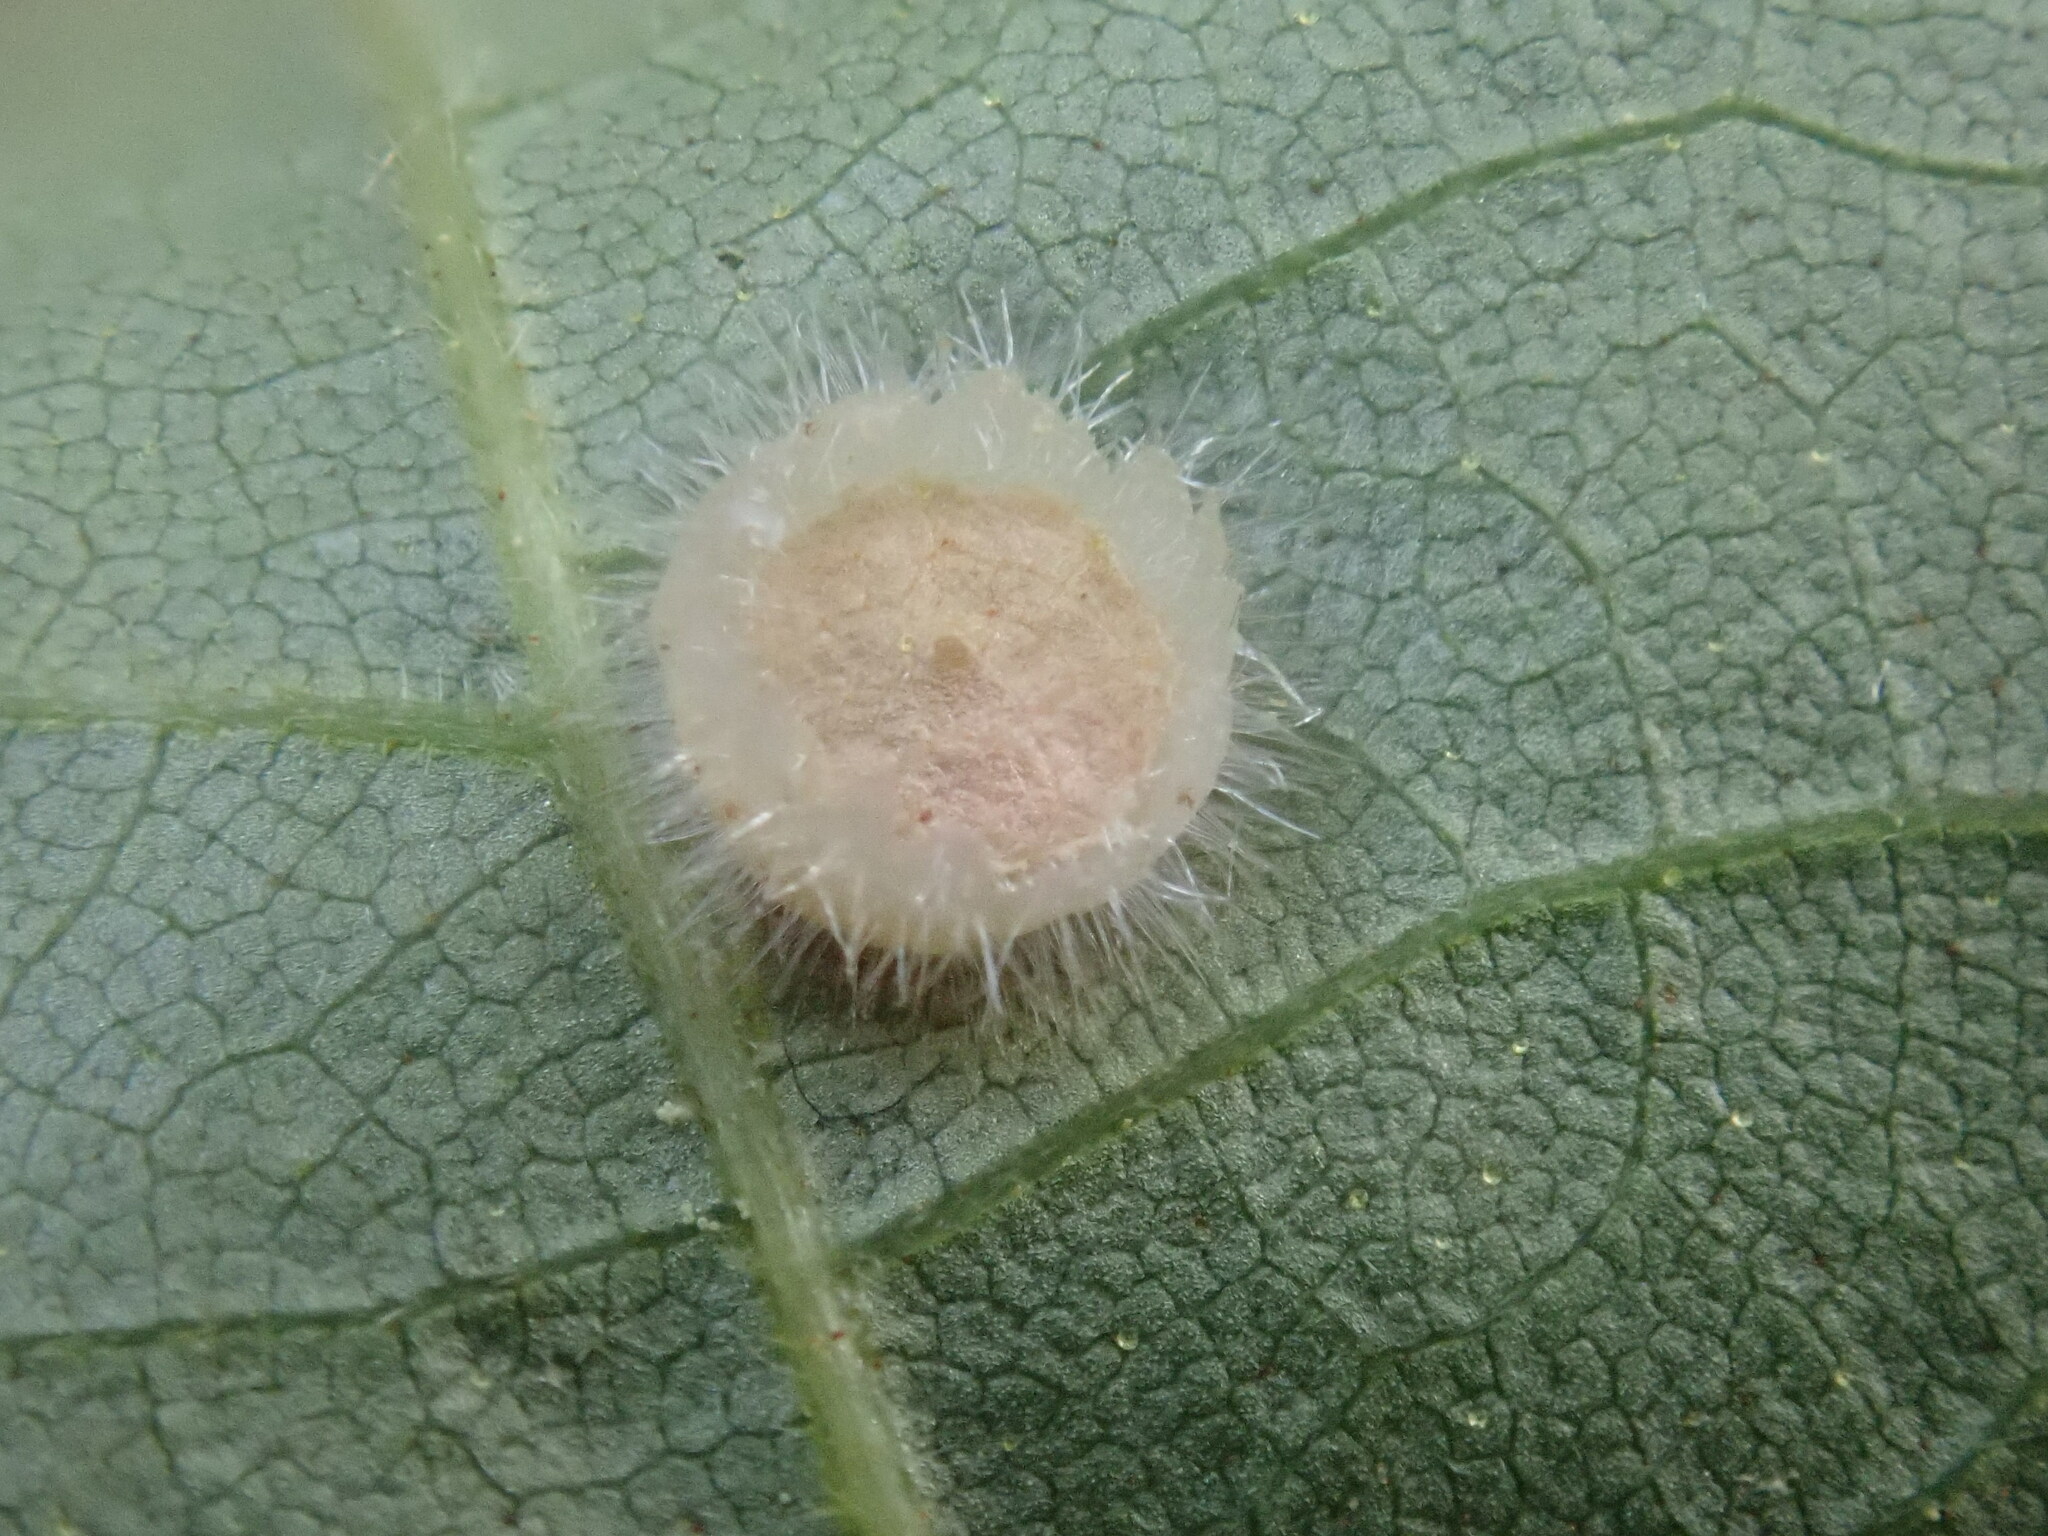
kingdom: Animalia
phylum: Arthropoda
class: Insecta
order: Diptera
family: Cecidomyiidae
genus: Caryomyia
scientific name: Caryomyia asteris
